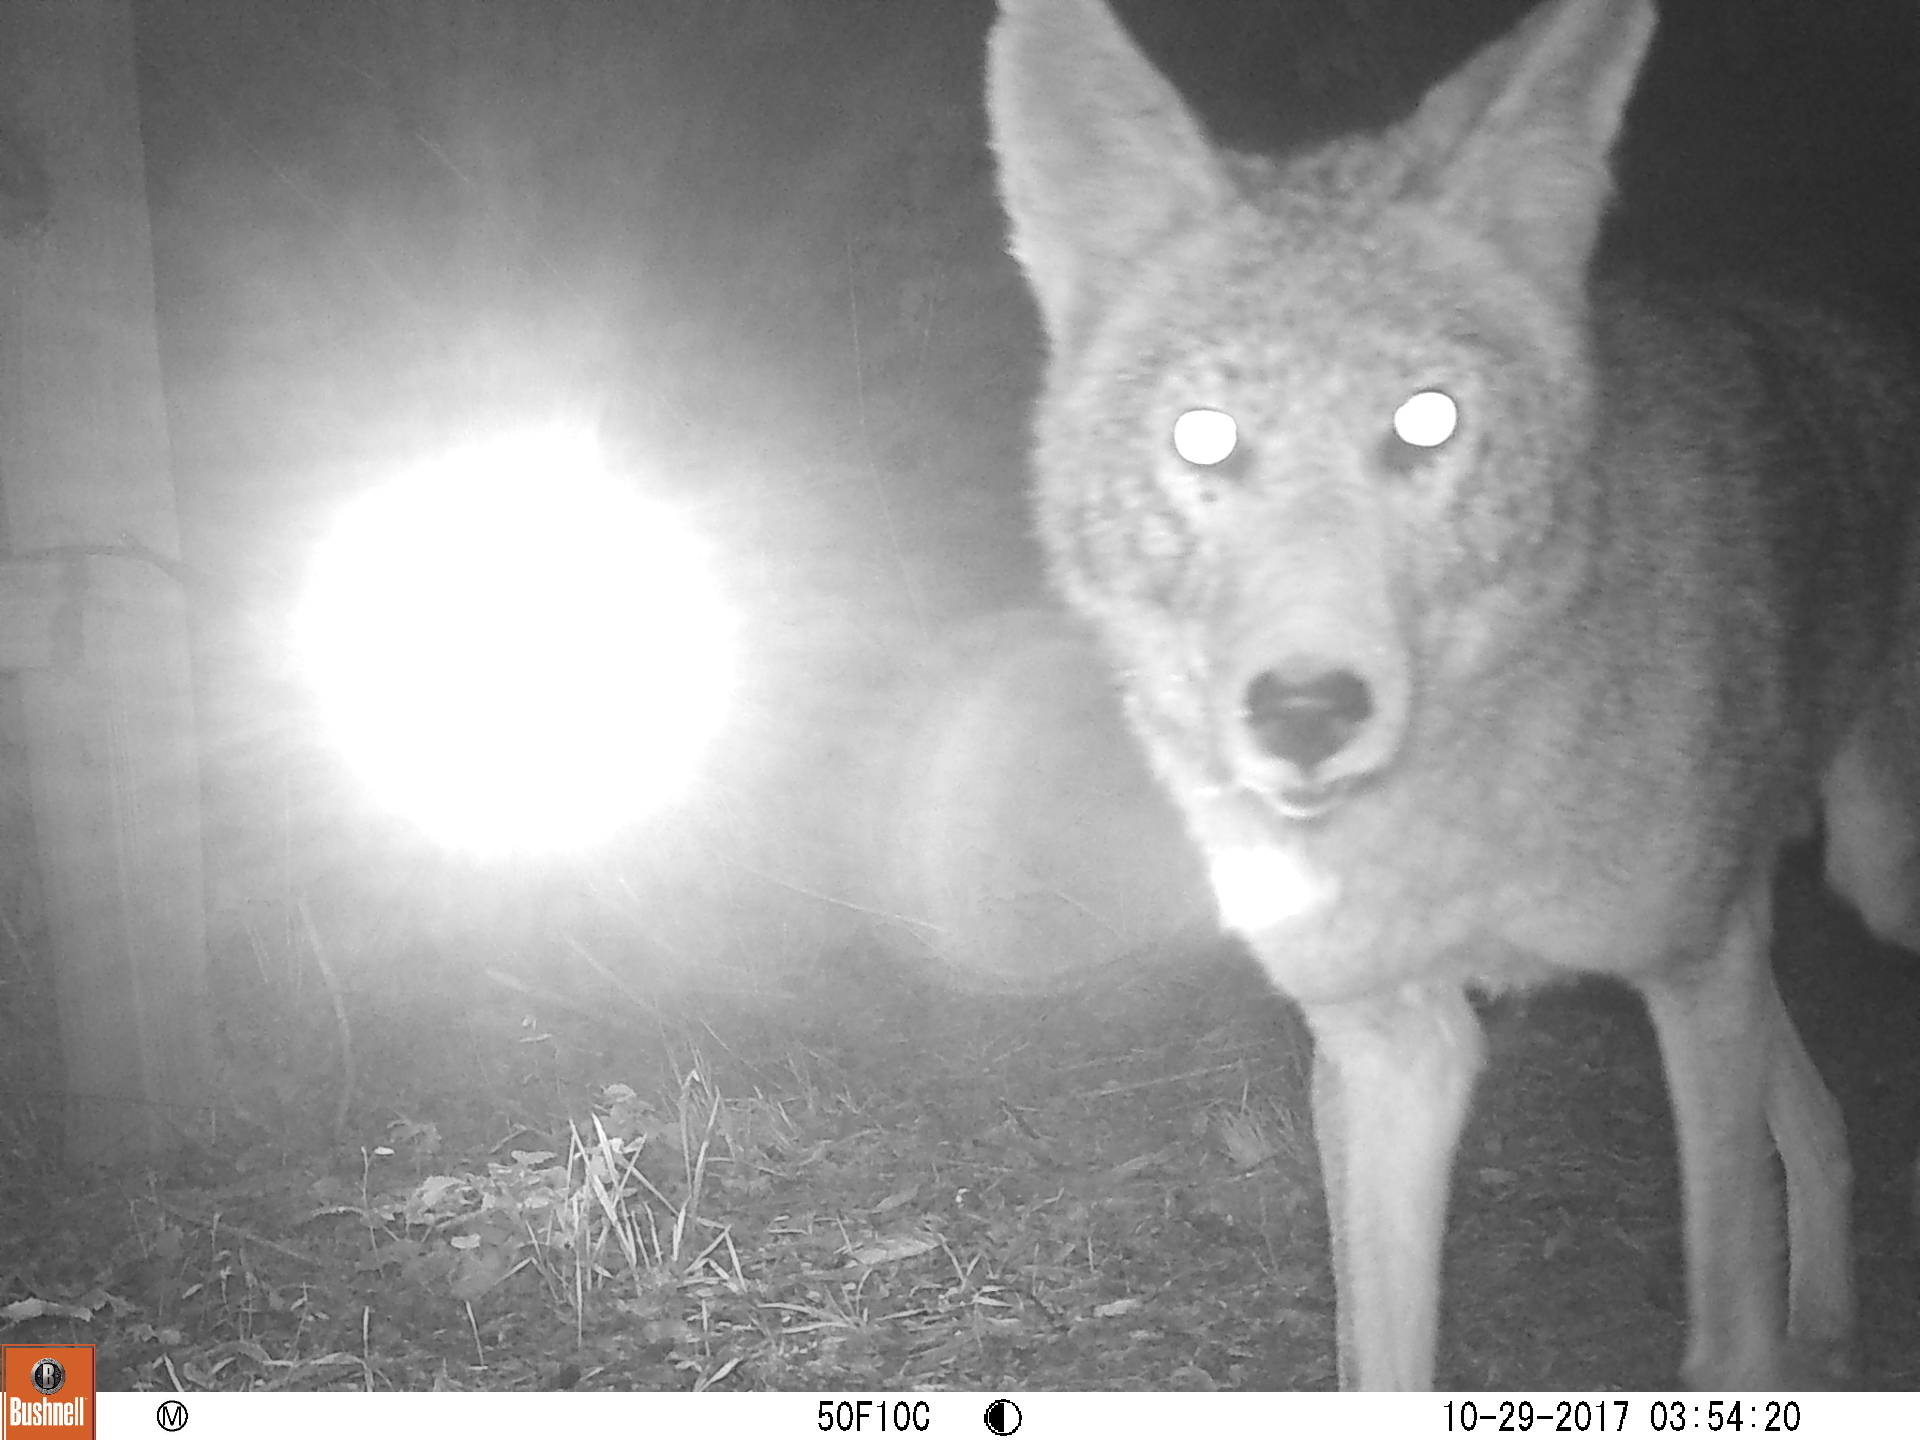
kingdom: Animalia
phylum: Chordata
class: Mammalia
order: Carnivora
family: Canidae
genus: Canis
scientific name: Canis latrans
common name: Coyote
